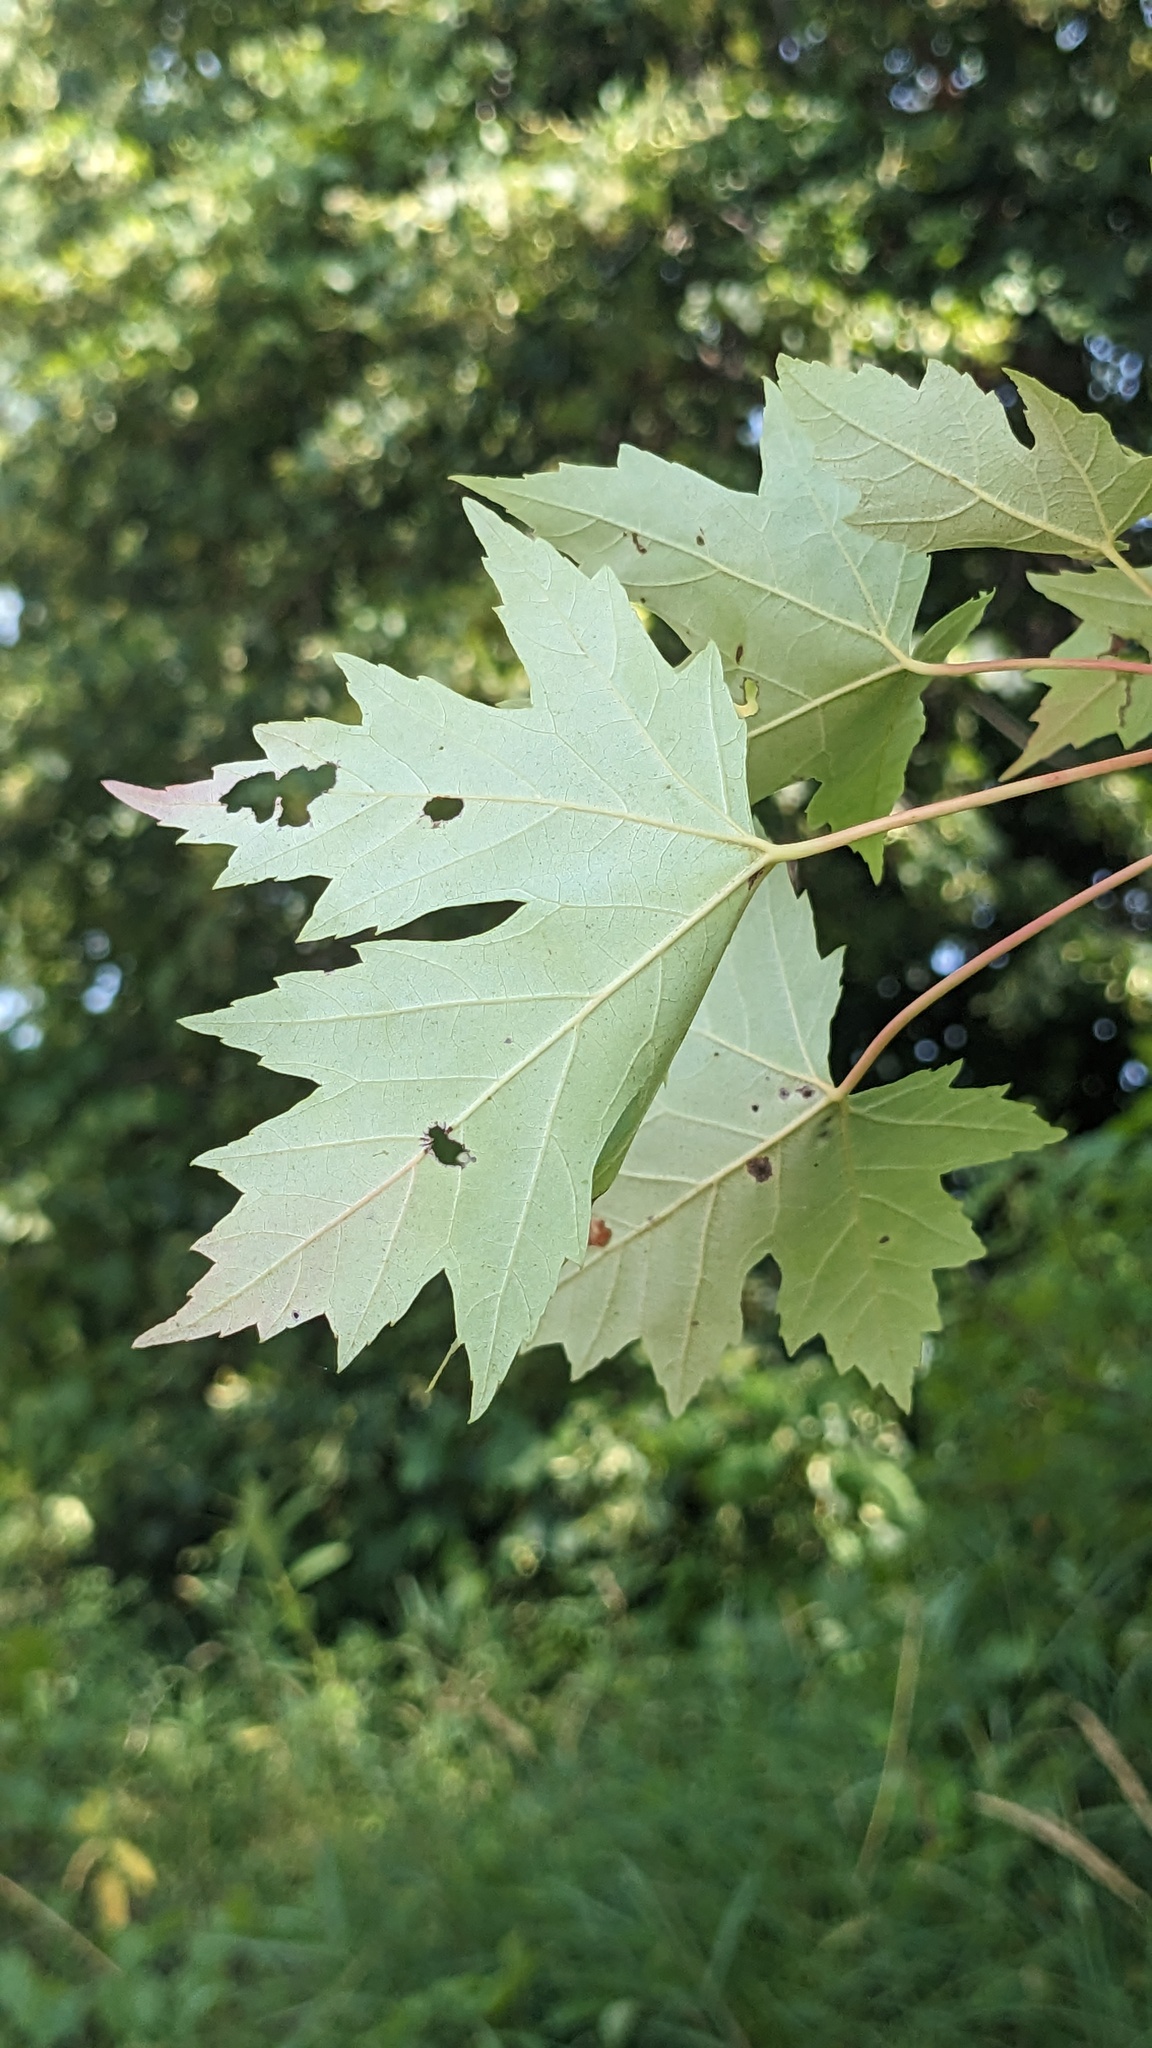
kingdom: Plantae
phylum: Tracheophyta
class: Magnoliopsida
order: Sapindales
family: Sapindaceae
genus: Acer
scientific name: Acer saccharinum
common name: Silver maple
